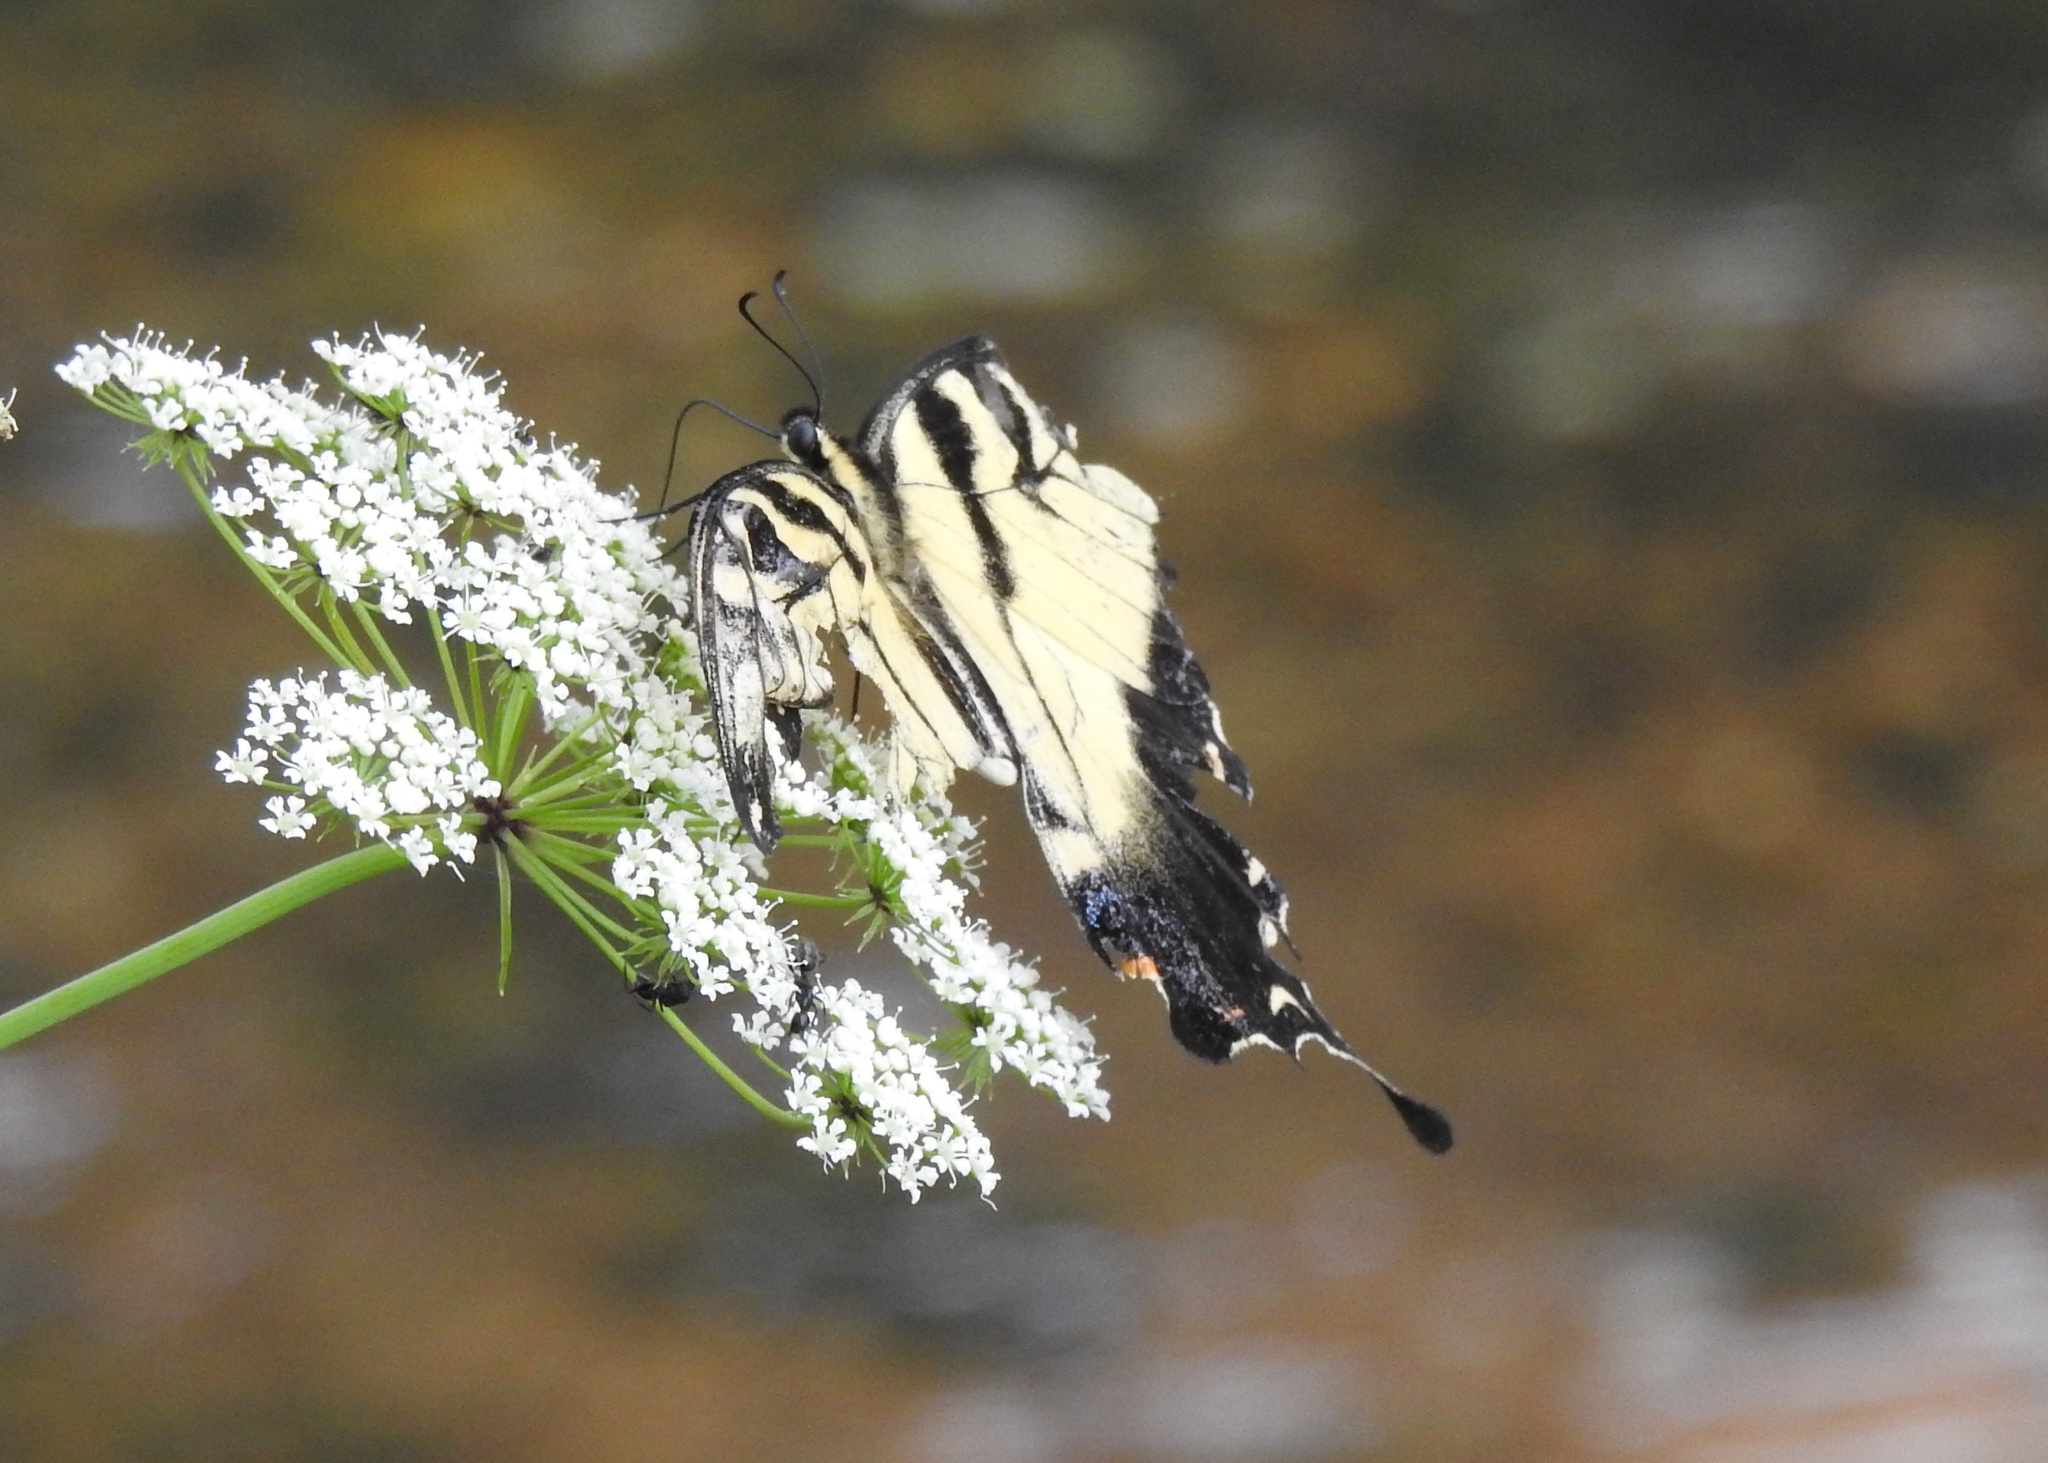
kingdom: Animalia
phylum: Arthropoda
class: Insecta
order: Lepidoptera
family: Papilionidae
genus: Papilio
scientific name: Papilio glaucus
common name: Tiger swallowtail
